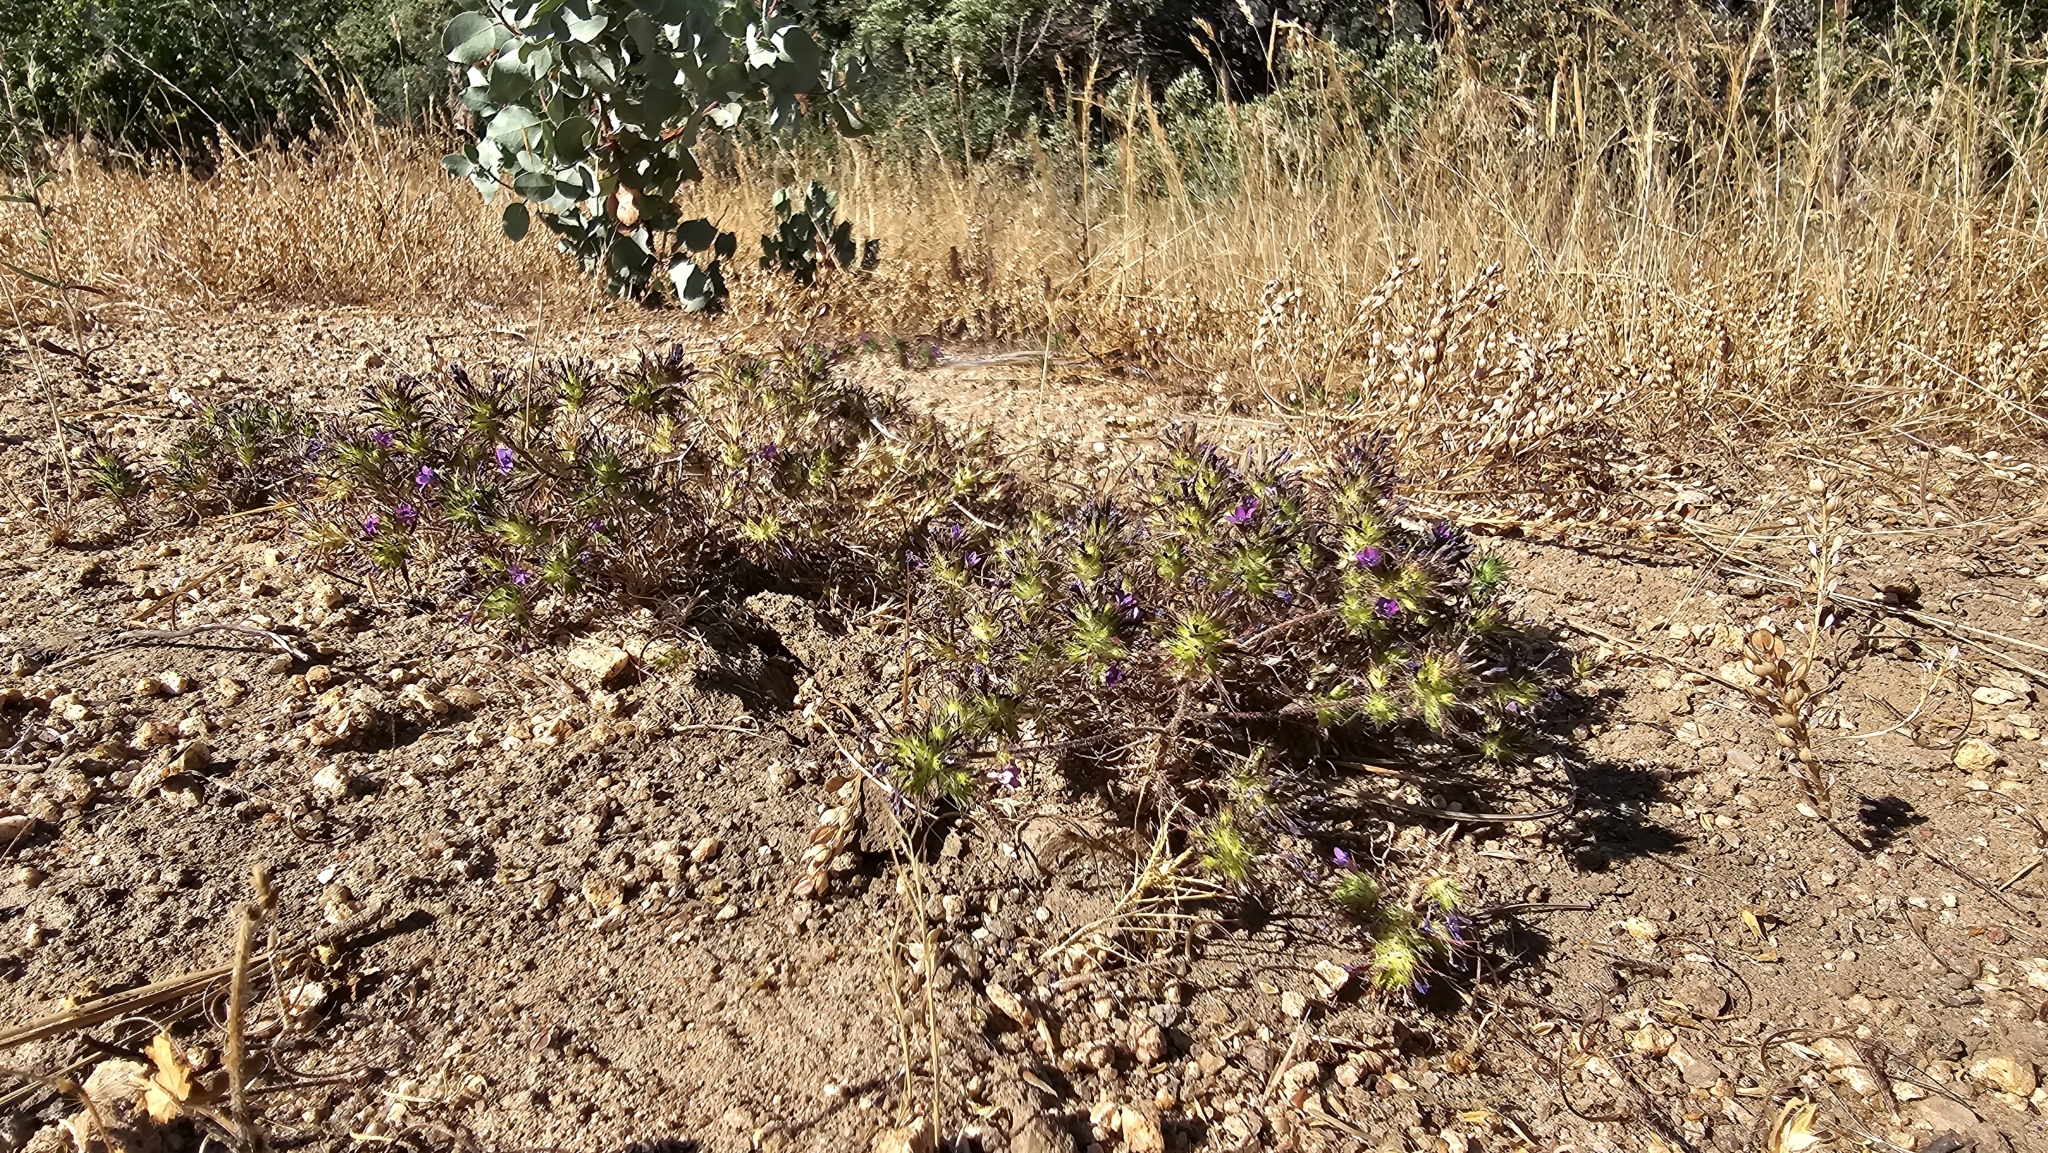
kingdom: Plantae
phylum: Tracheophyta
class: Magnoliopsida
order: Ericales
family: Polemoniaceae
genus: Navarretia
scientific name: Navarretia viscidula
